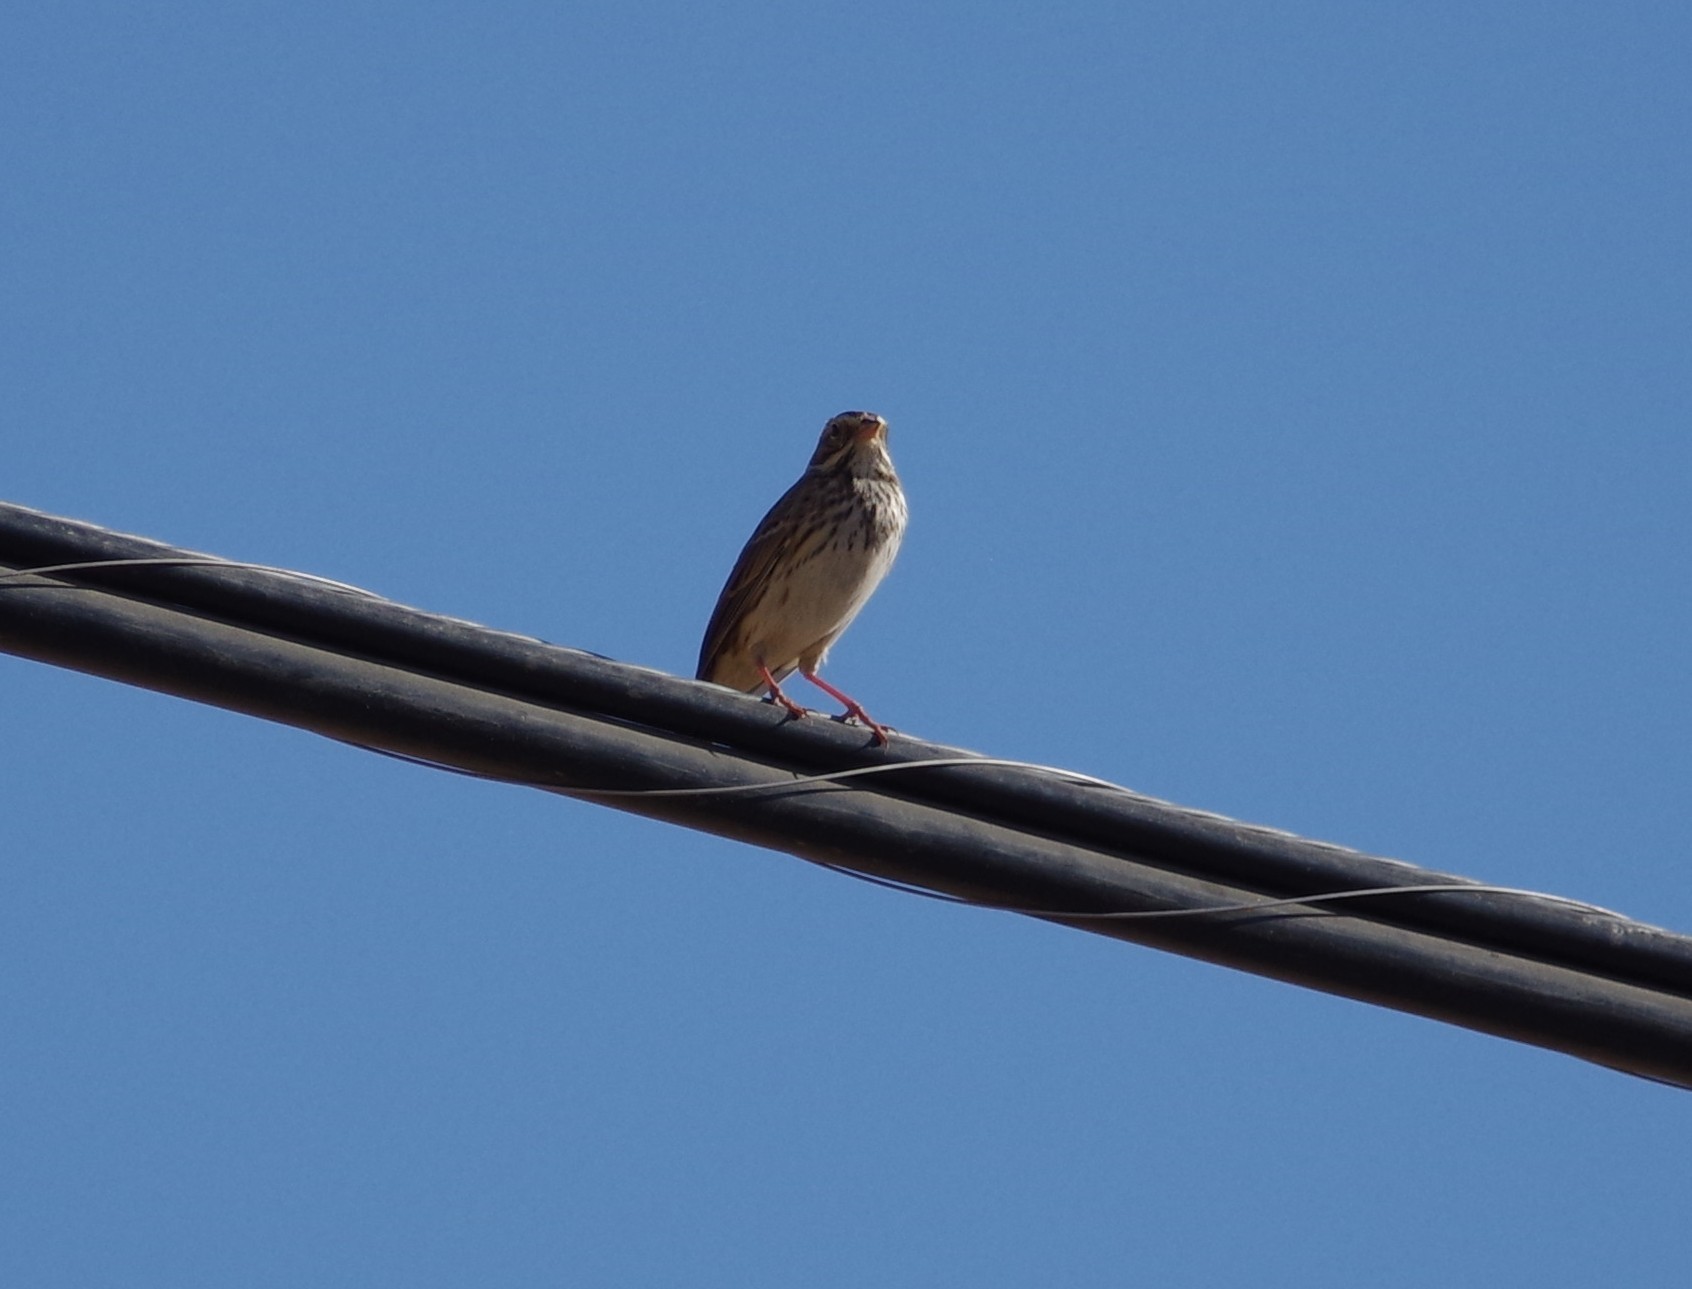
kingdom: Animalia
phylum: Chordata
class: Aves
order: Passeriformes
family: Passerellidae
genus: Passerculus
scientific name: Passerculus sandwichensis
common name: Savannah sparrow
